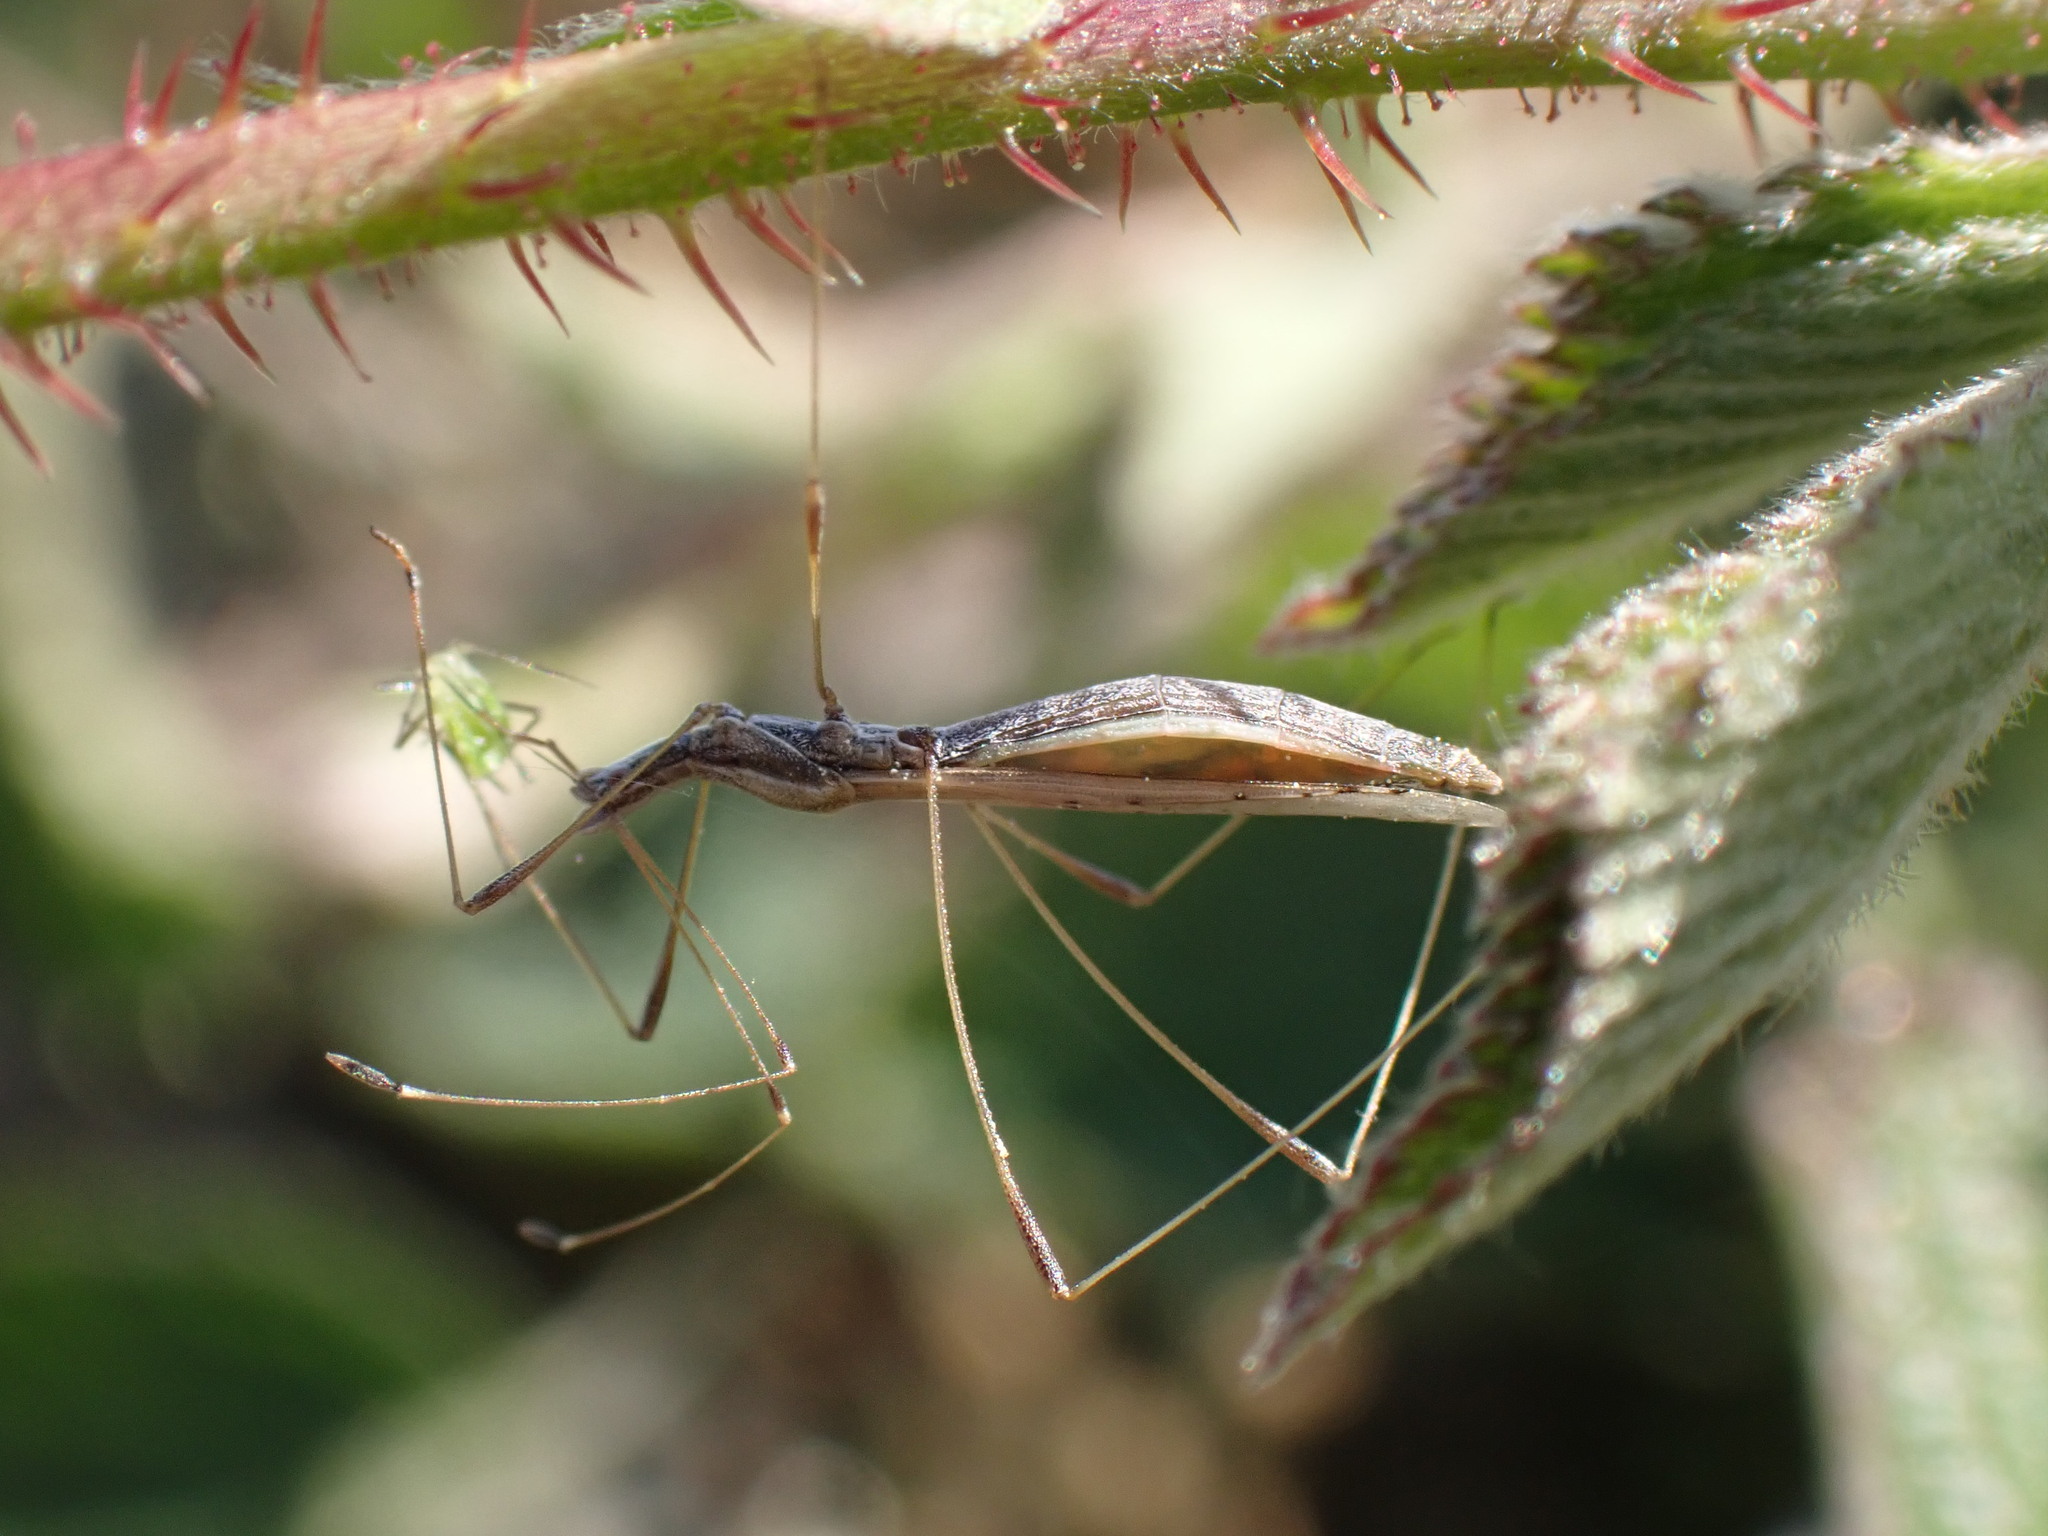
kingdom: Animalia
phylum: Arthropoda
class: Insecta
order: Hemiptera
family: Berytidae
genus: Neides
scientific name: Neides tipularius
